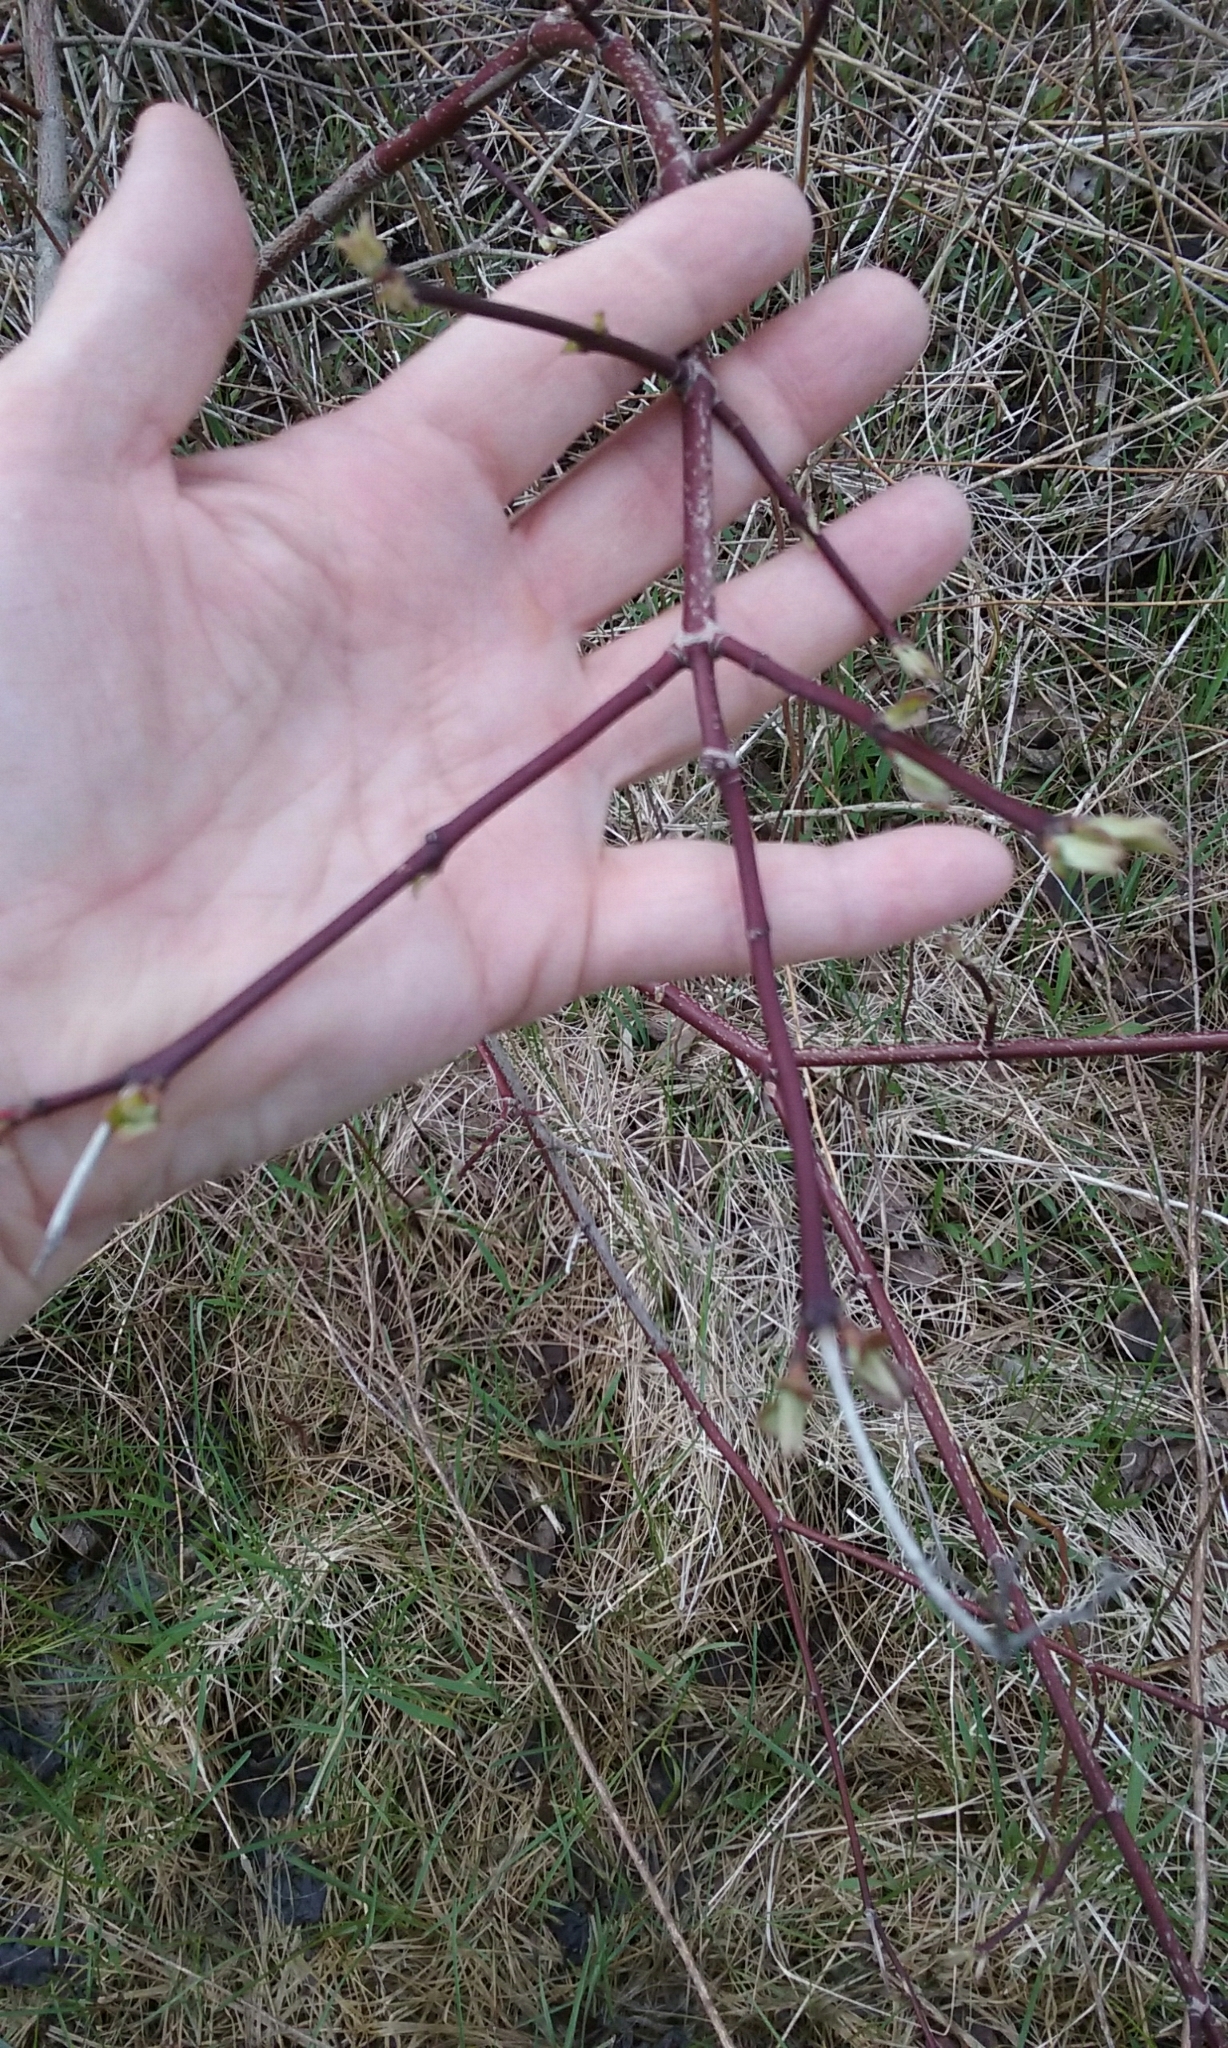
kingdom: Plantae
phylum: Tracheophyta
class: Magnoliopsida
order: Cornales
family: Cornaceae
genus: Cornus
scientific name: Cornus amomum
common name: Silky dogwood
